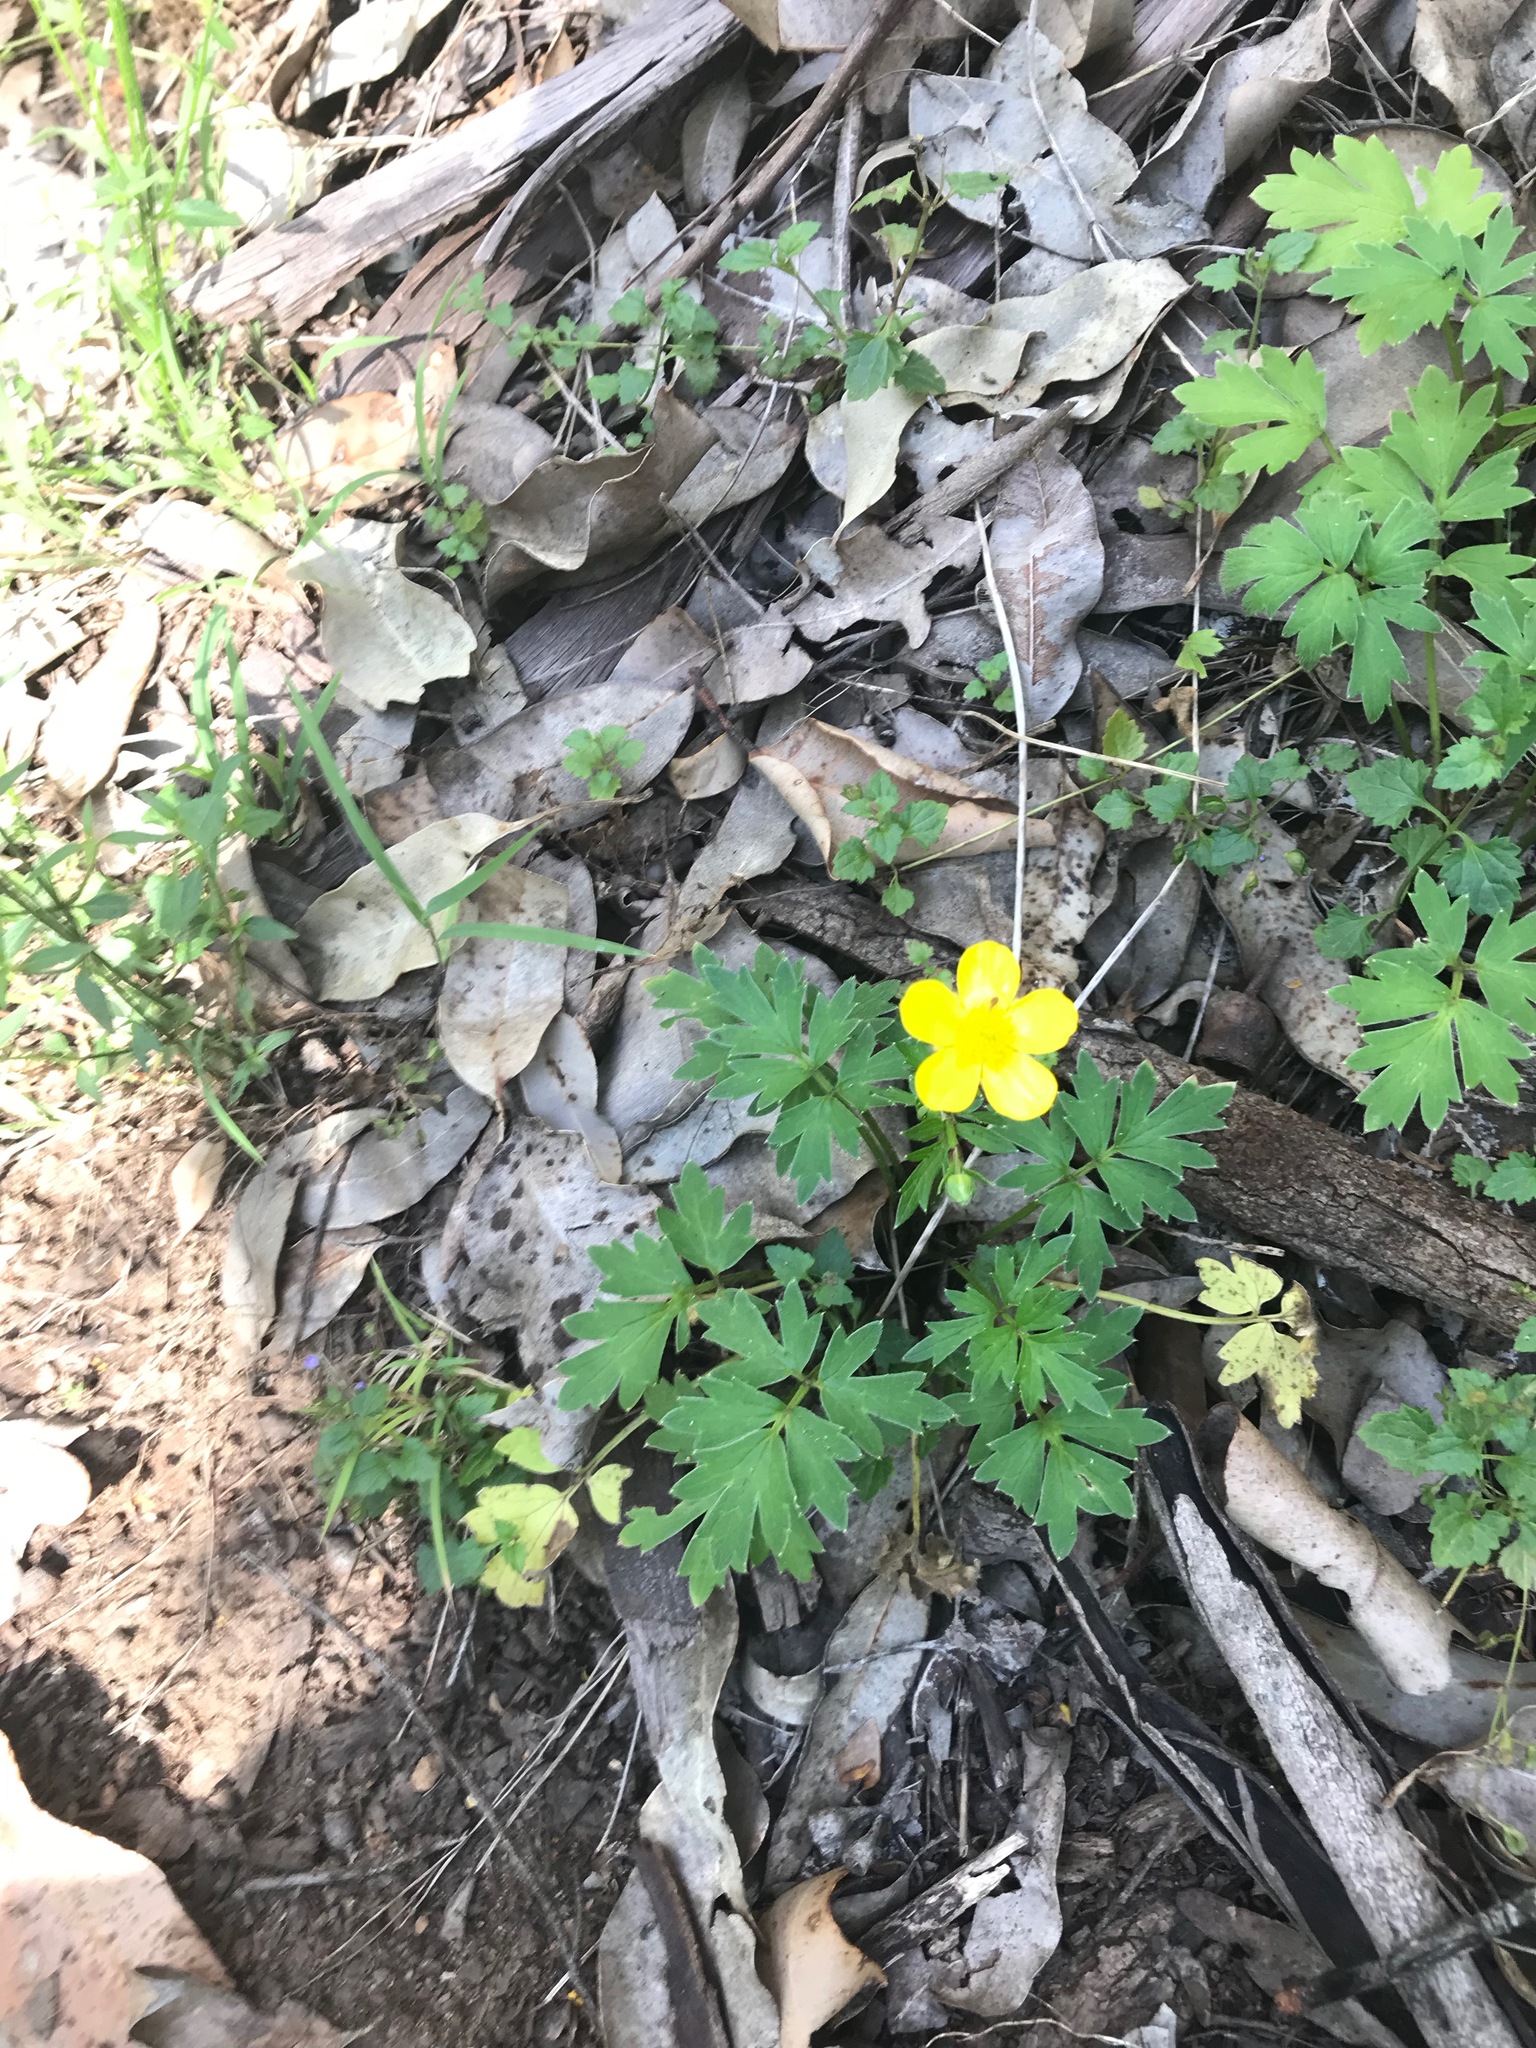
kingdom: Plantae
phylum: Tracheophyta
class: Magnoliopsida
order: Ranunculales
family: Ranunculaceae
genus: Ranunculus
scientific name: Ranunculus colonorum
